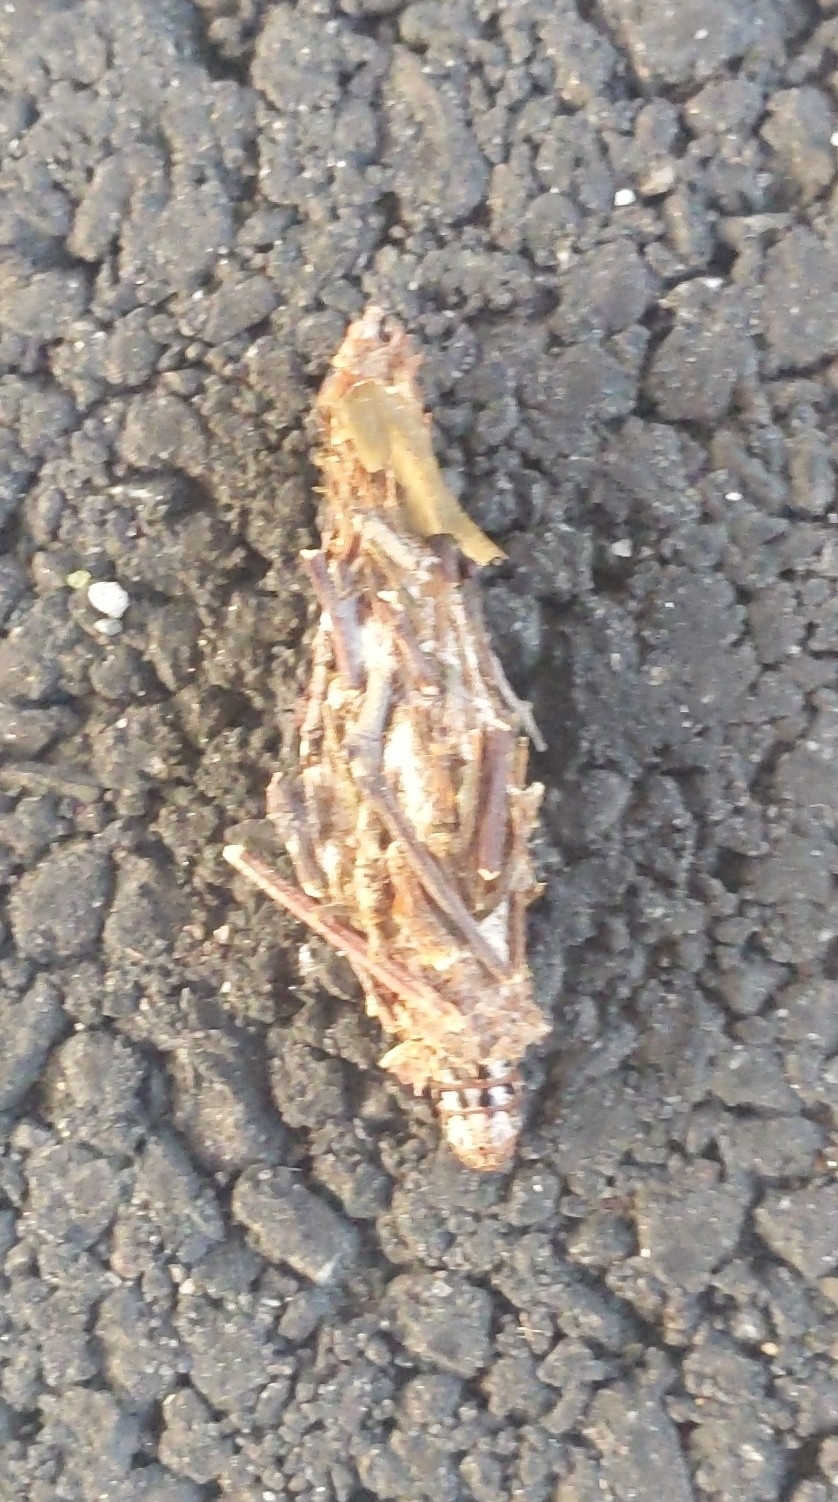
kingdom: Animalia
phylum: Arthropoda
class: Insecta
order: Lepidoptera
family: Psychidae
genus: Thyridopteryx
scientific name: Thyridopteryx ephemeraeformis
